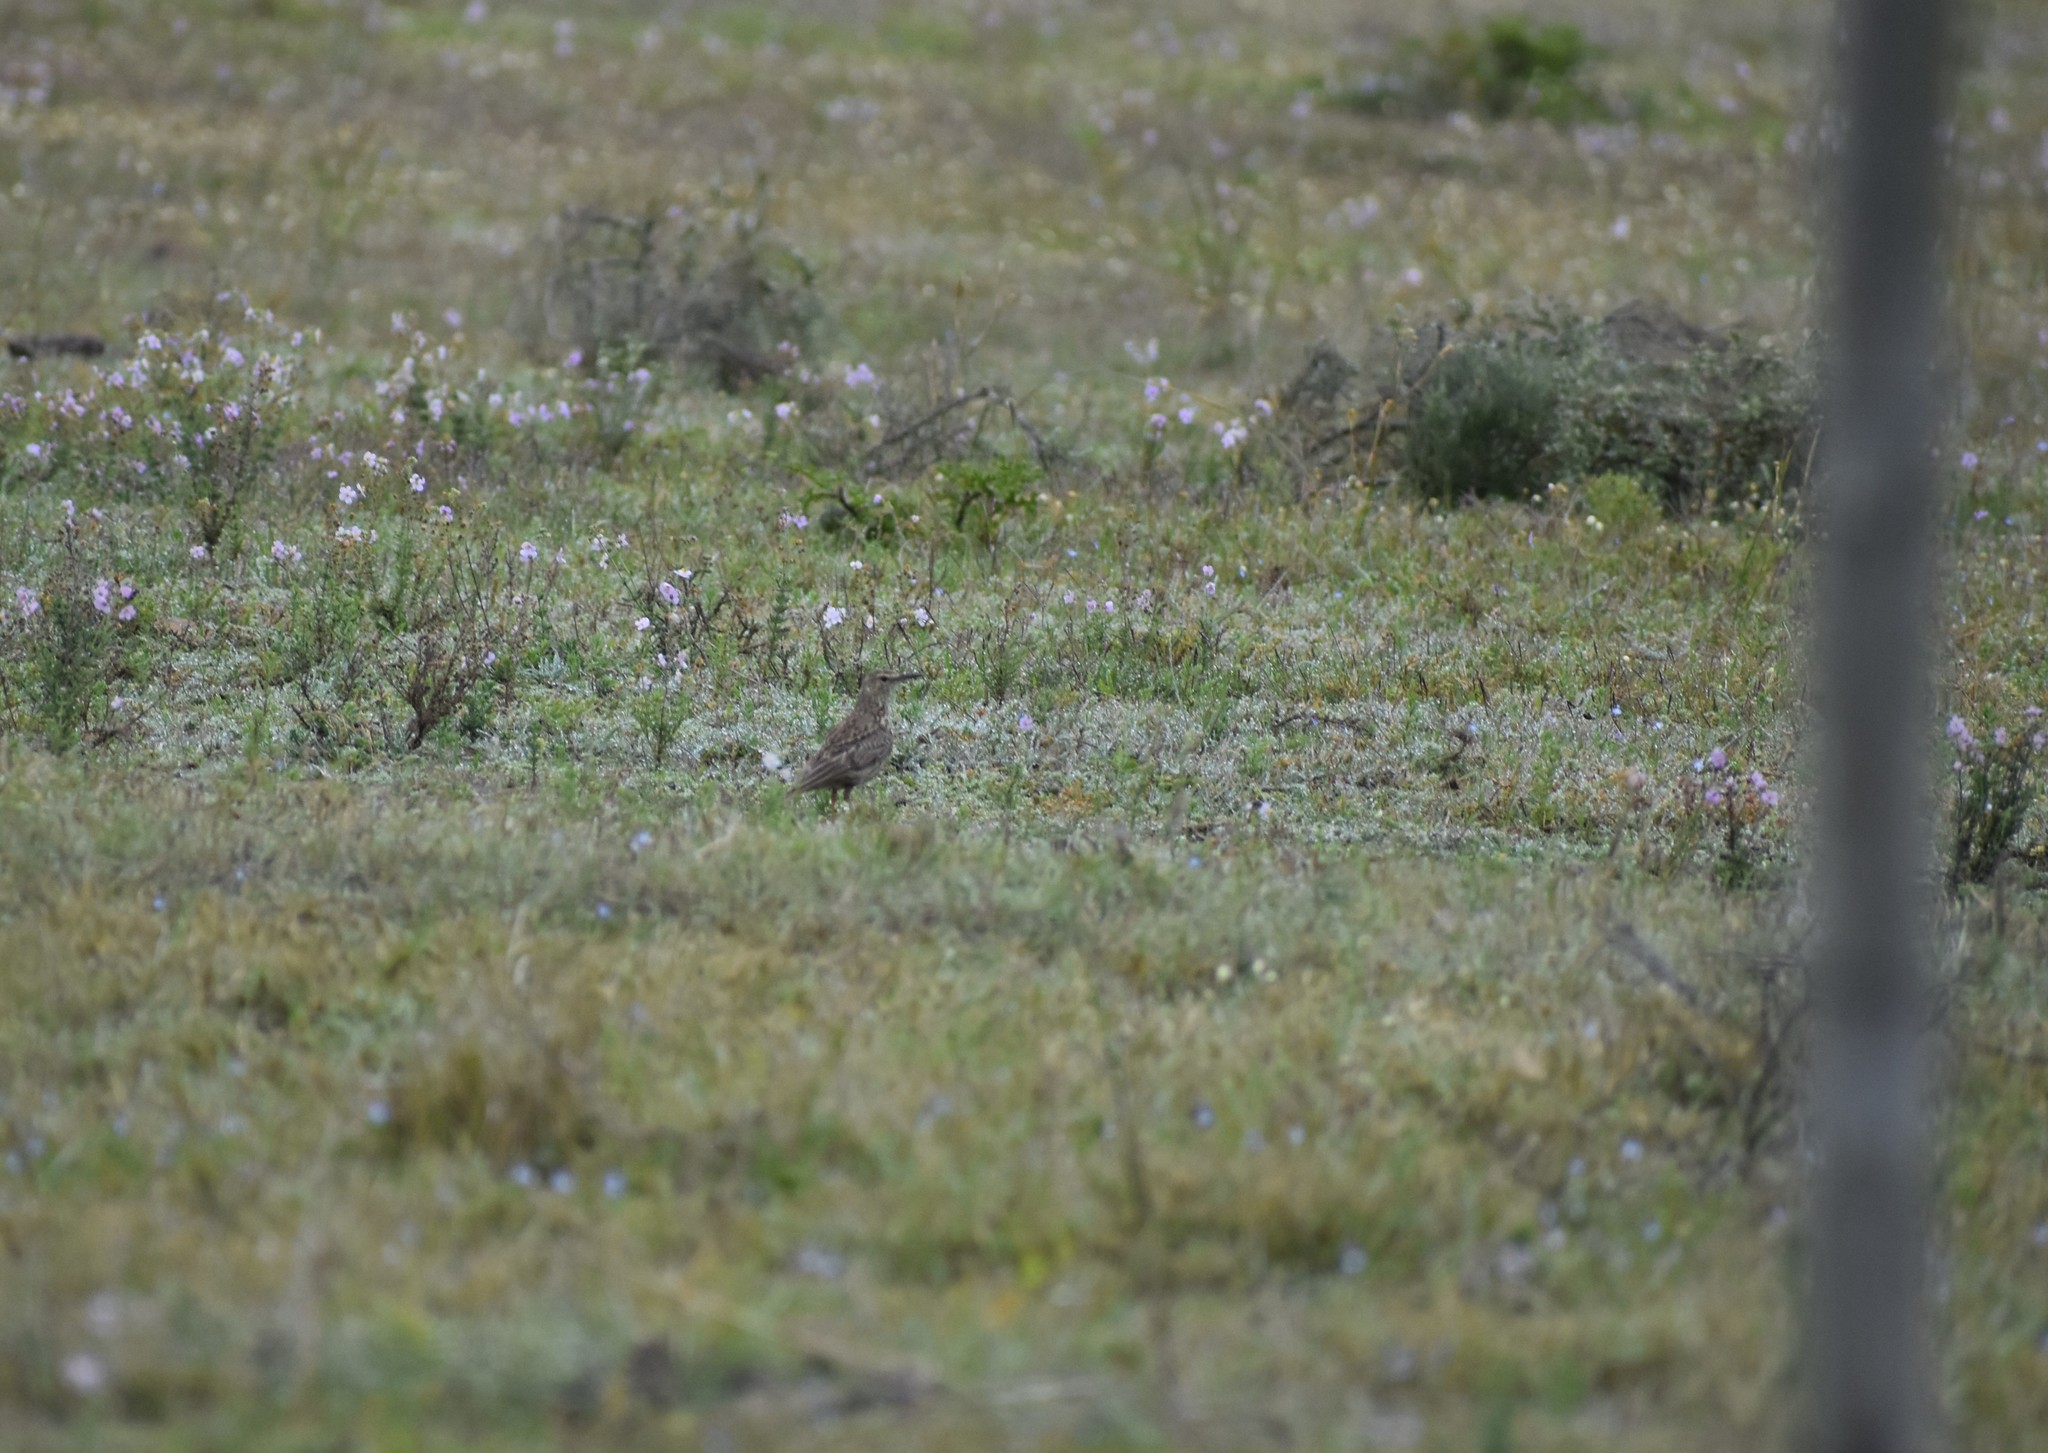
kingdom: Animalia
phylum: Chordata
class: Aves
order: Passeriformes
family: Alaudidae
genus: Certhilauda
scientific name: Certhilauda curvirostris
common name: Cape long-billed lark
